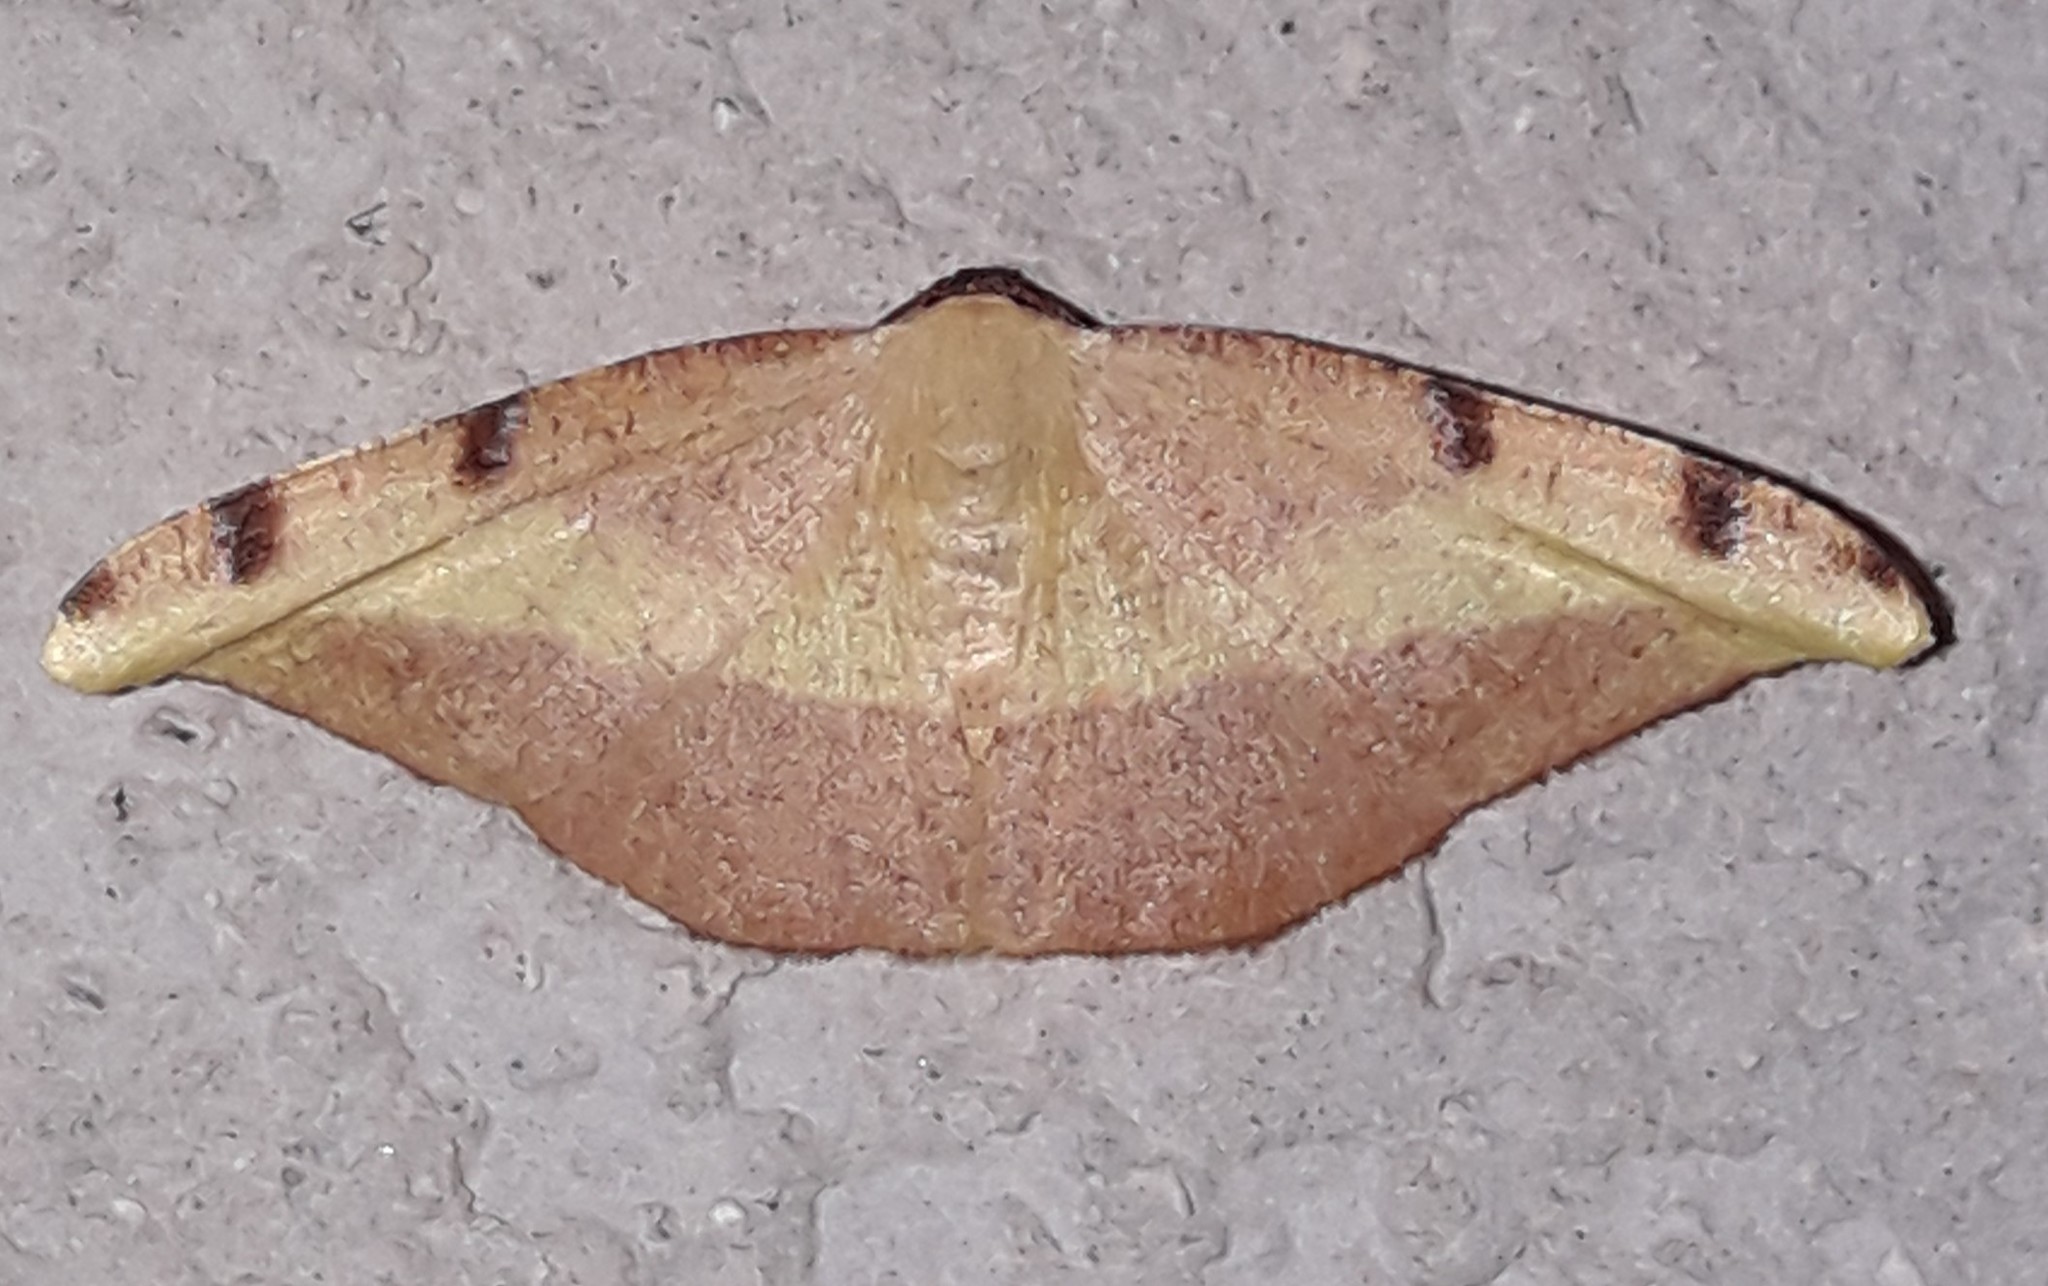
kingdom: Animalia
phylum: Arthropoda
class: Insecta
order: Lepidoptera
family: Geometridae
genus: Pyrinia
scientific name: Pyrinia divalis
